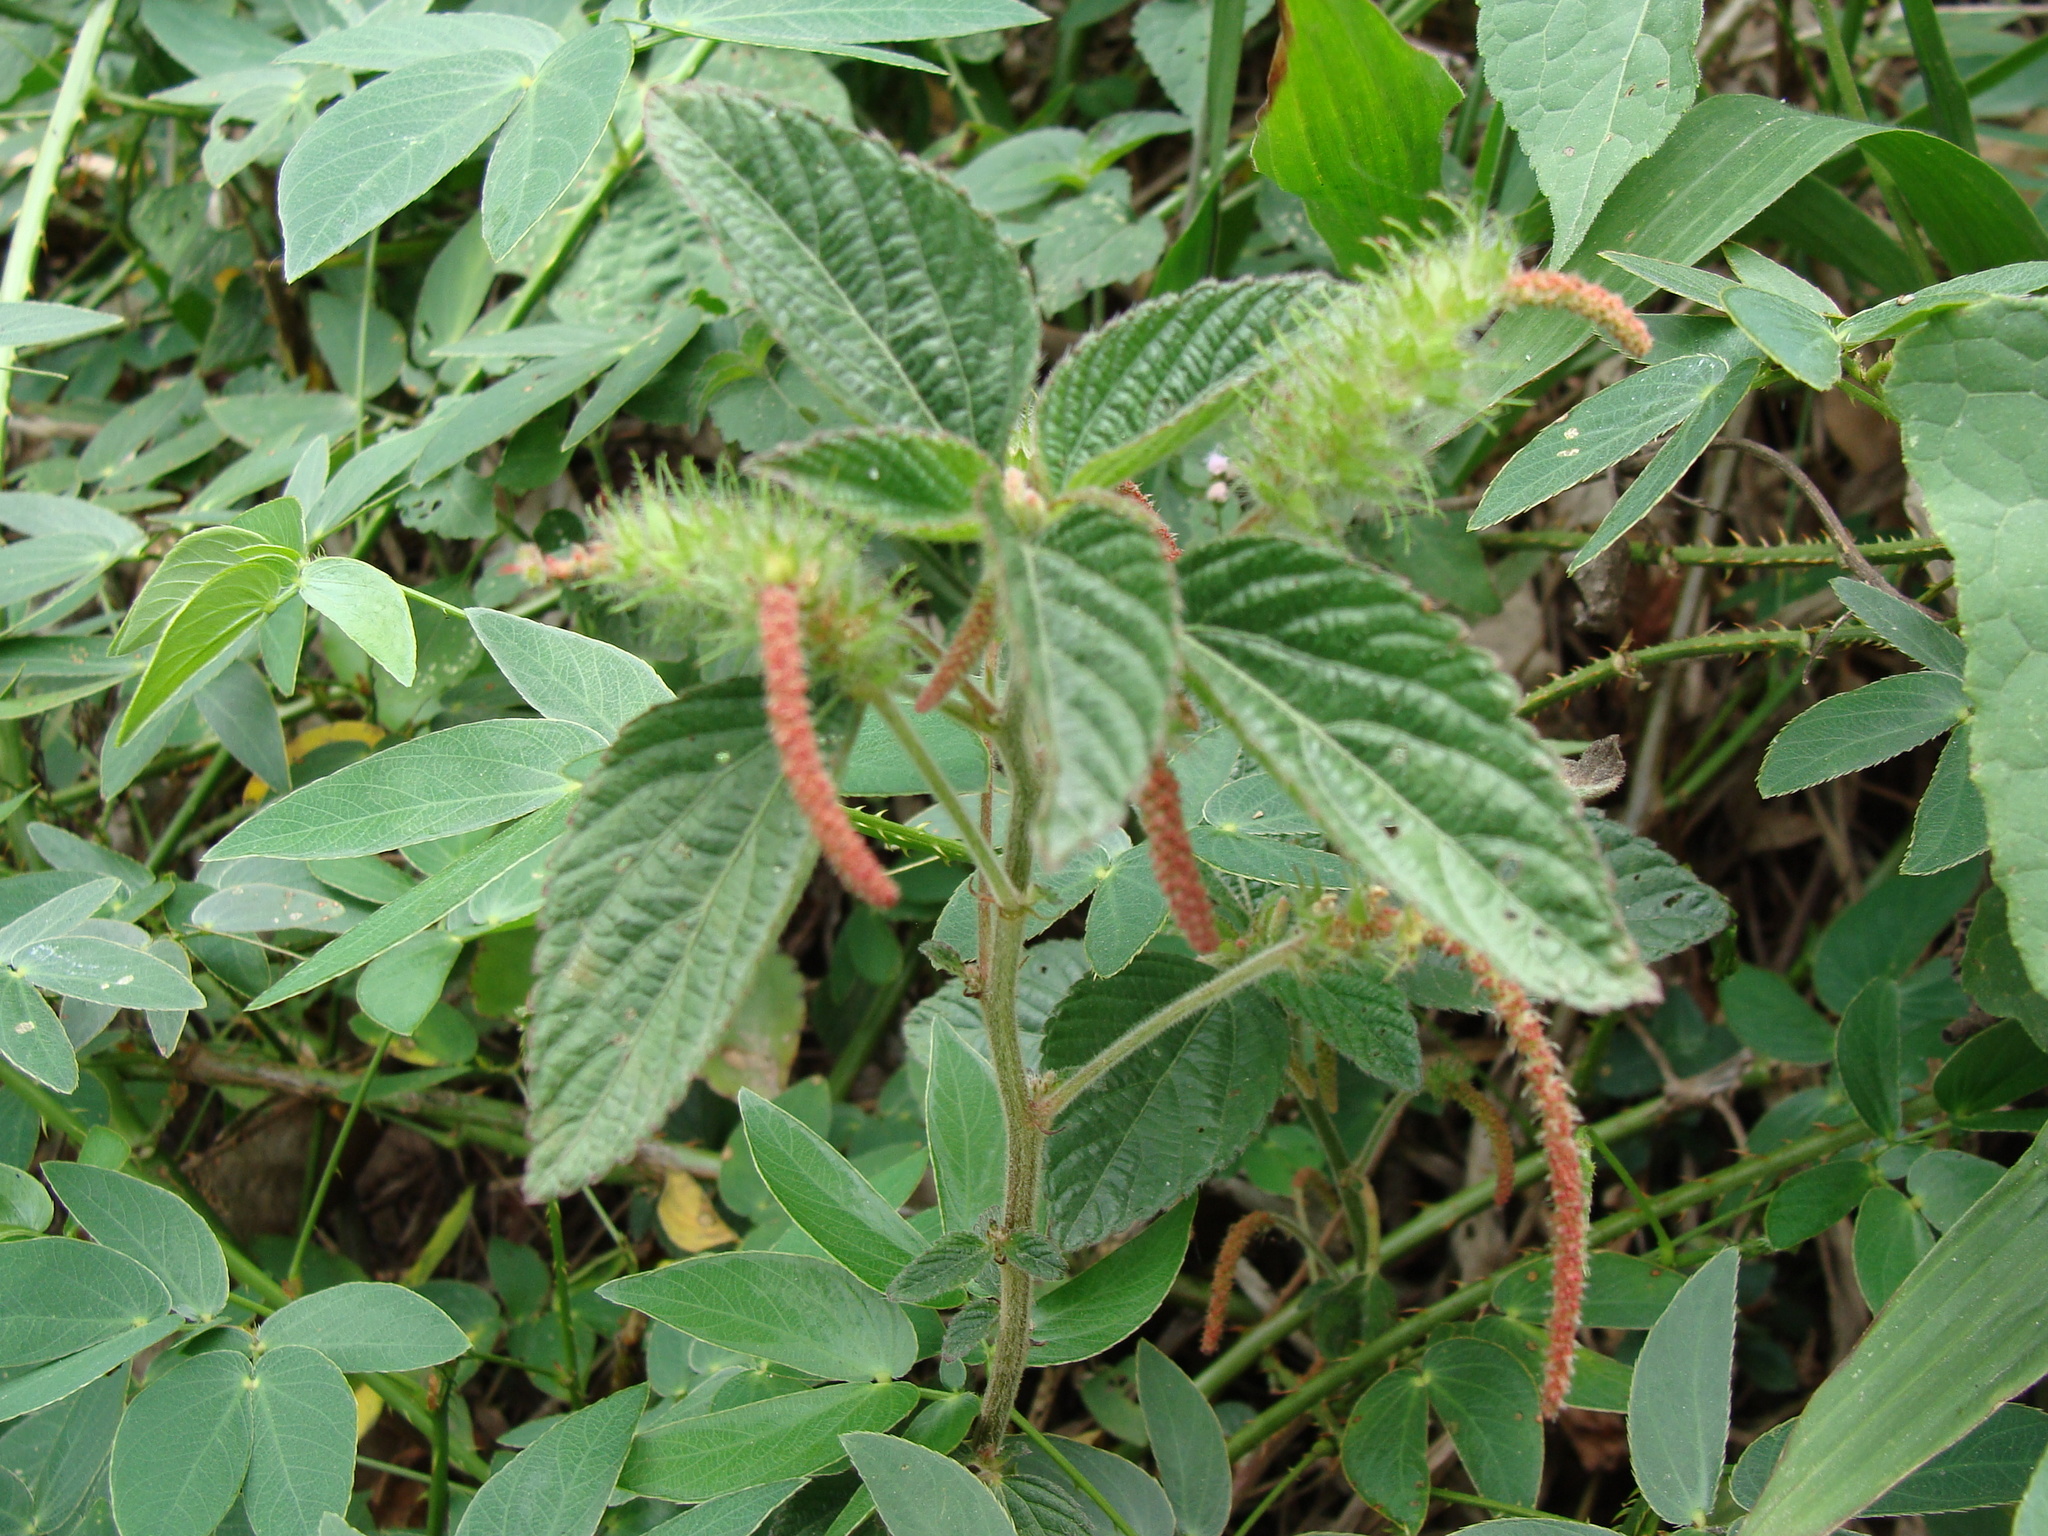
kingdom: Plantae
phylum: Tracheophyta
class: Magnoliopsida
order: Malpighiales
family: Euphorbiaceae
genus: Acalypha
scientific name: Acalypha alopecuroidea
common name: Foxtail copperleaf
